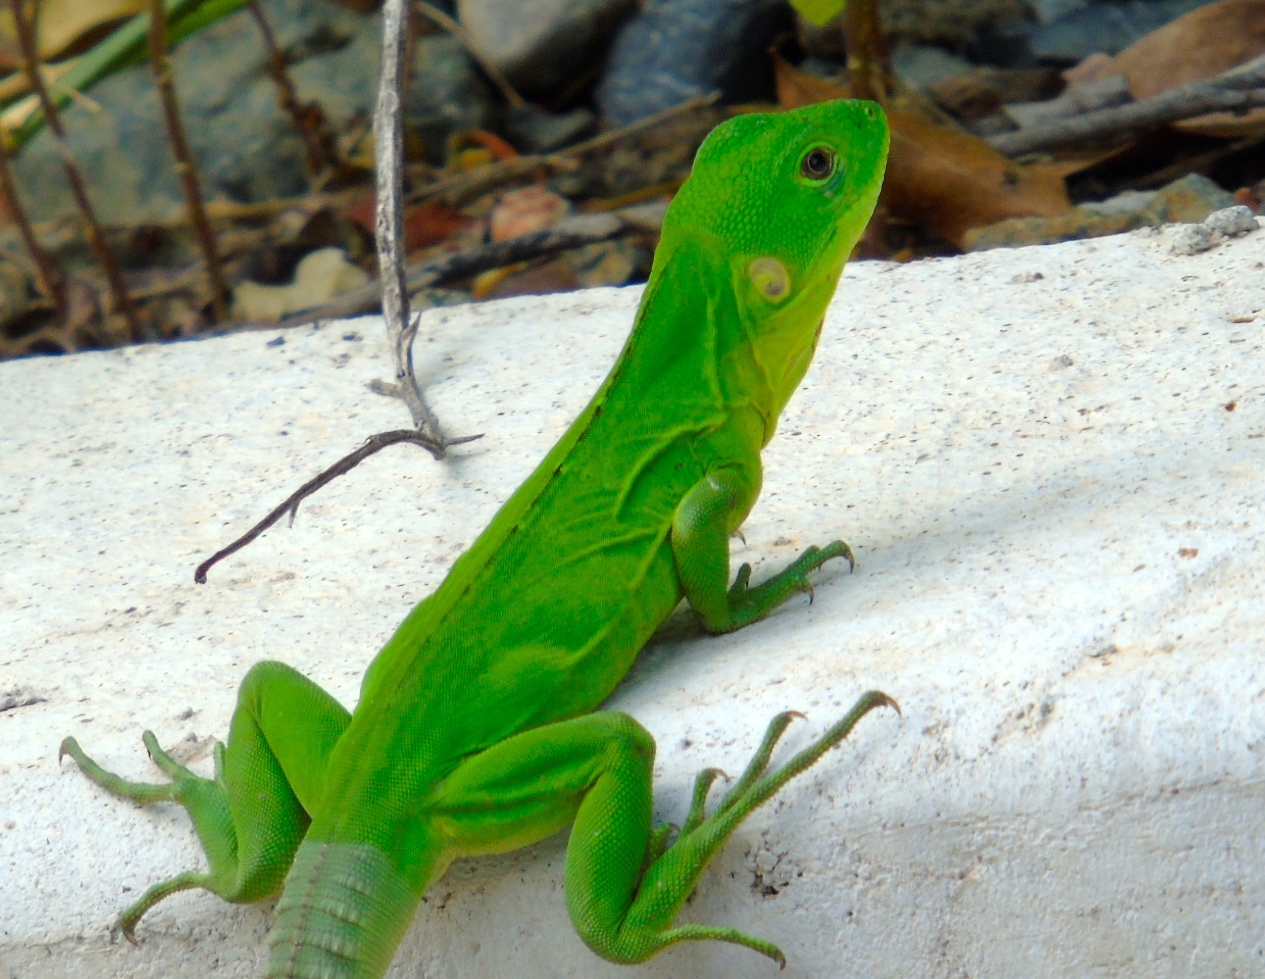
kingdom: Animalia
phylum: Chordata
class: Squamata
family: Iguanidae
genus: Ctenosaura
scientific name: Ctenosaura pectinata
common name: Guerreran spiny-tailed iguana
